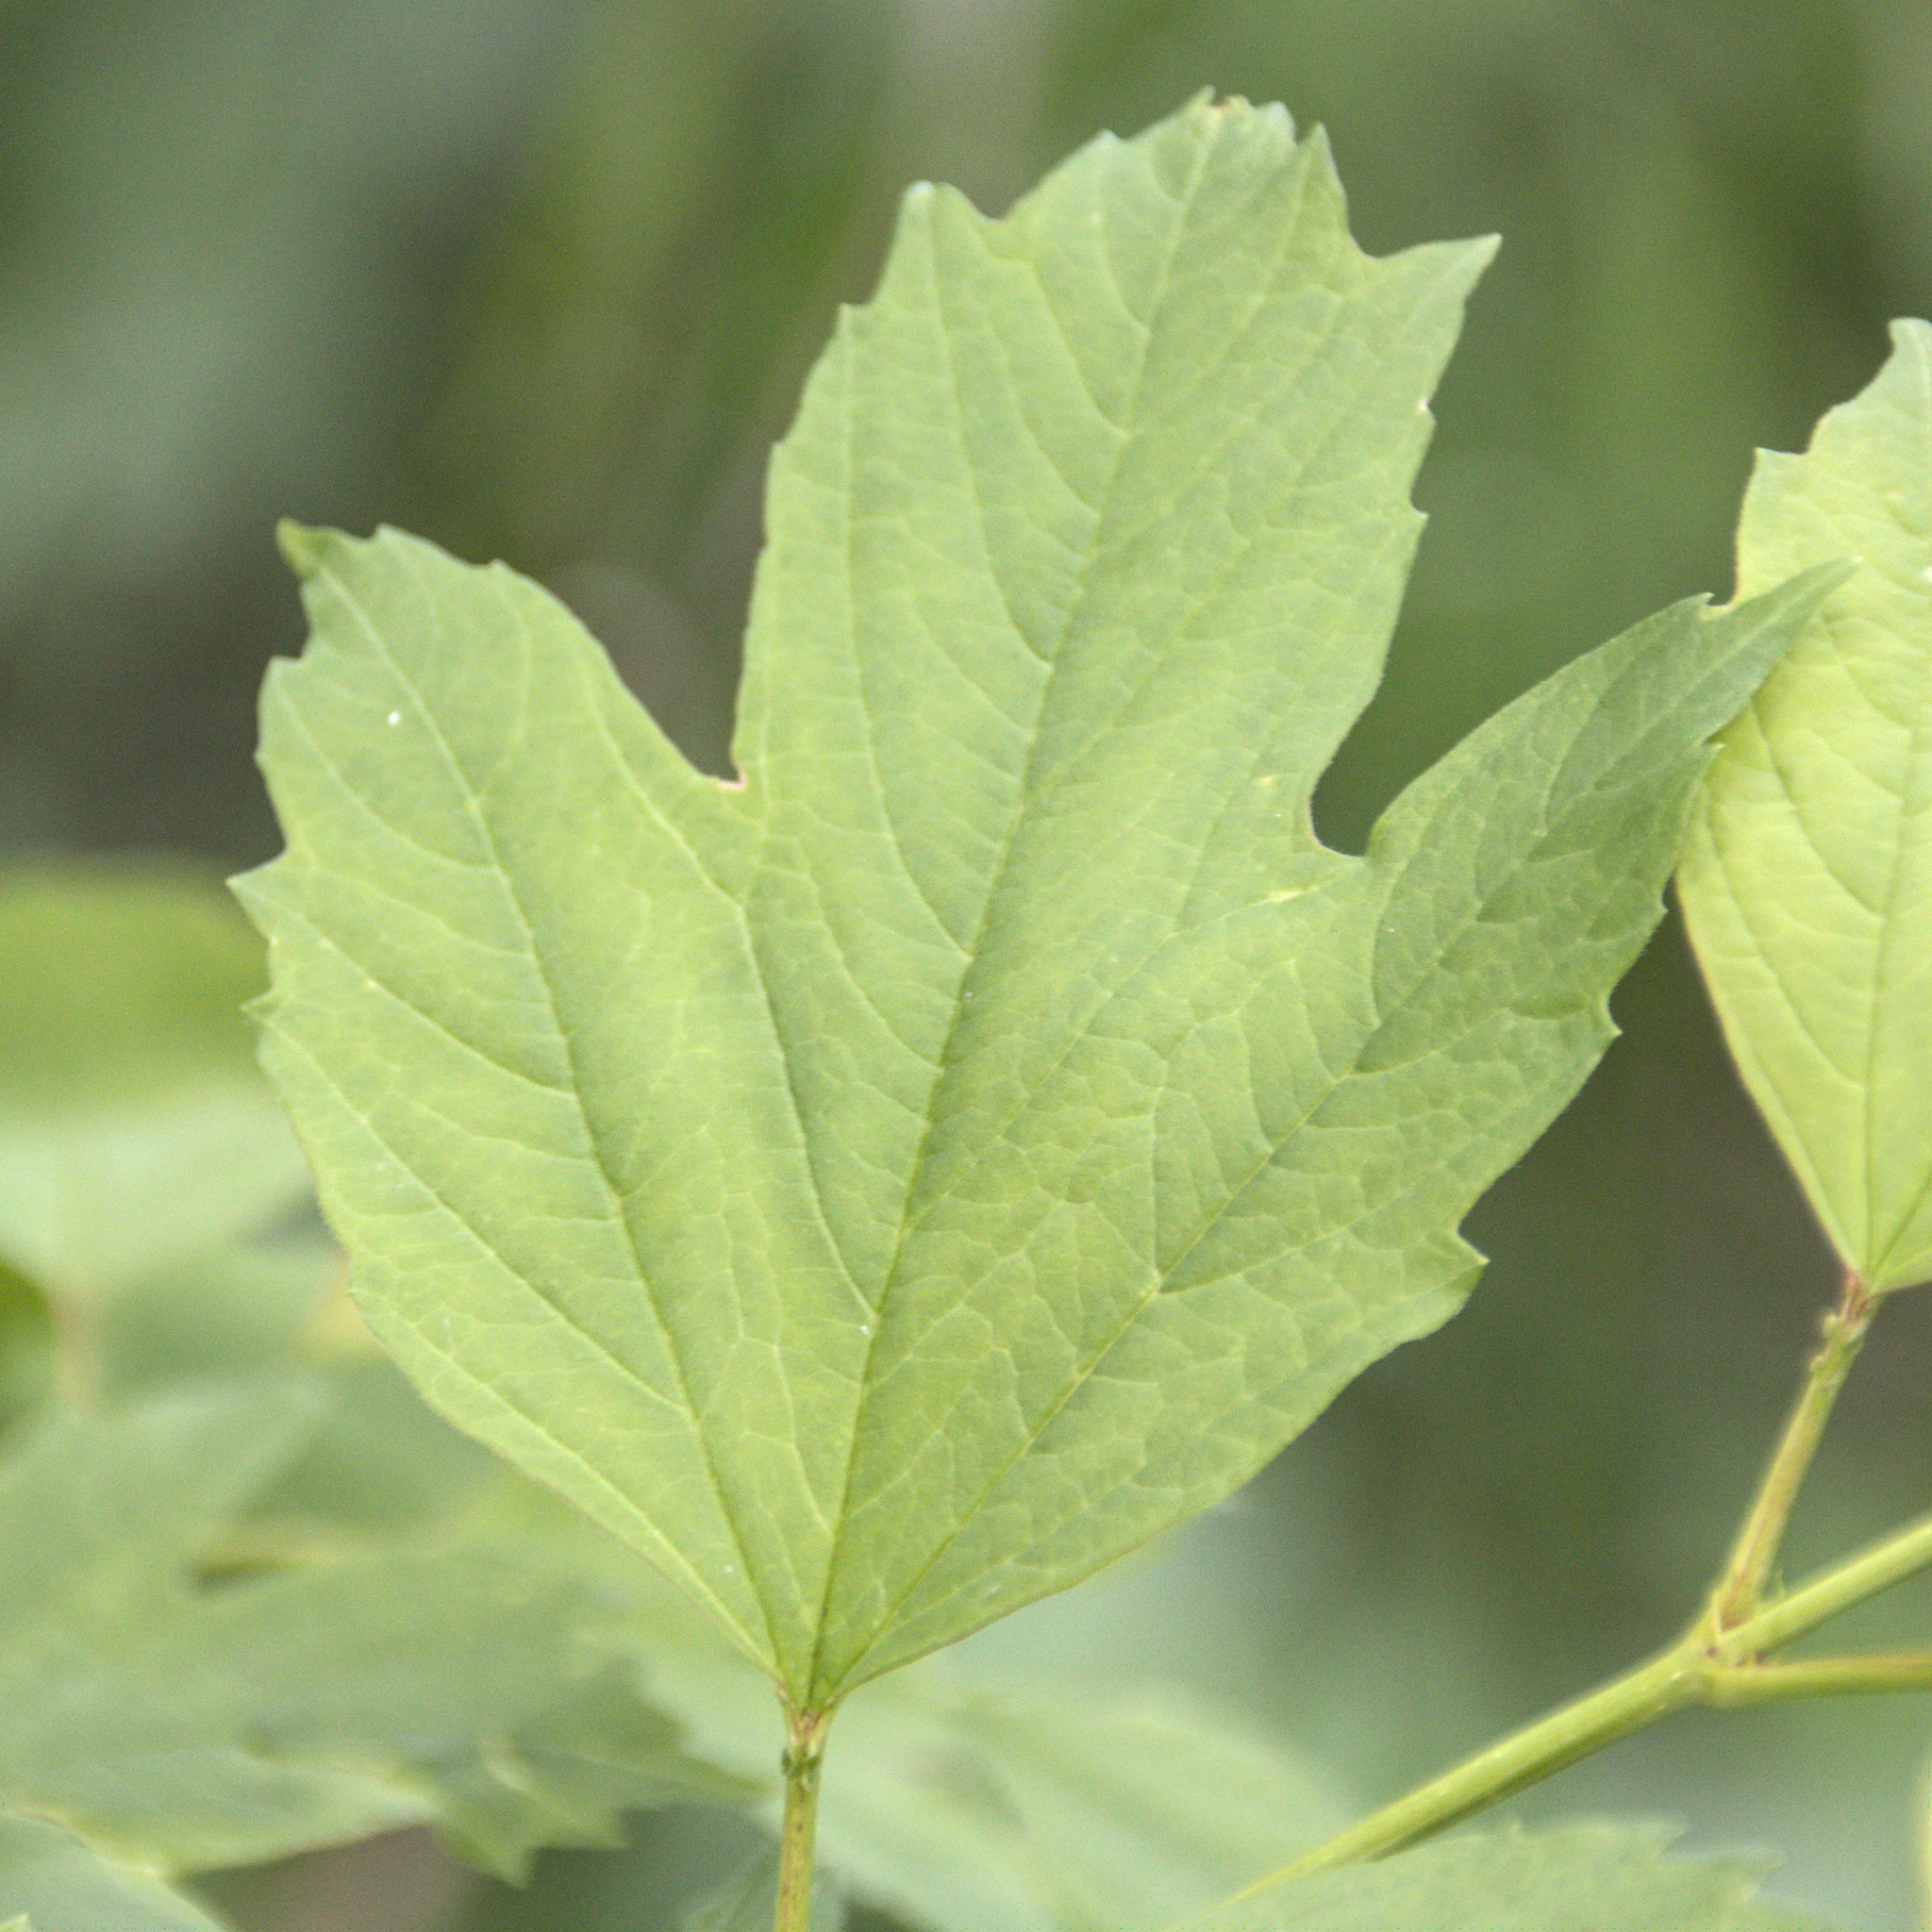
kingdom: Plantae
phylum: Tracheophyta
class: Magnoliopsida
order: Dipsacales
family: Viburnaceae
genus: Viburnum
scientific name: Viburnum opulus
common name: Guelder-rose
